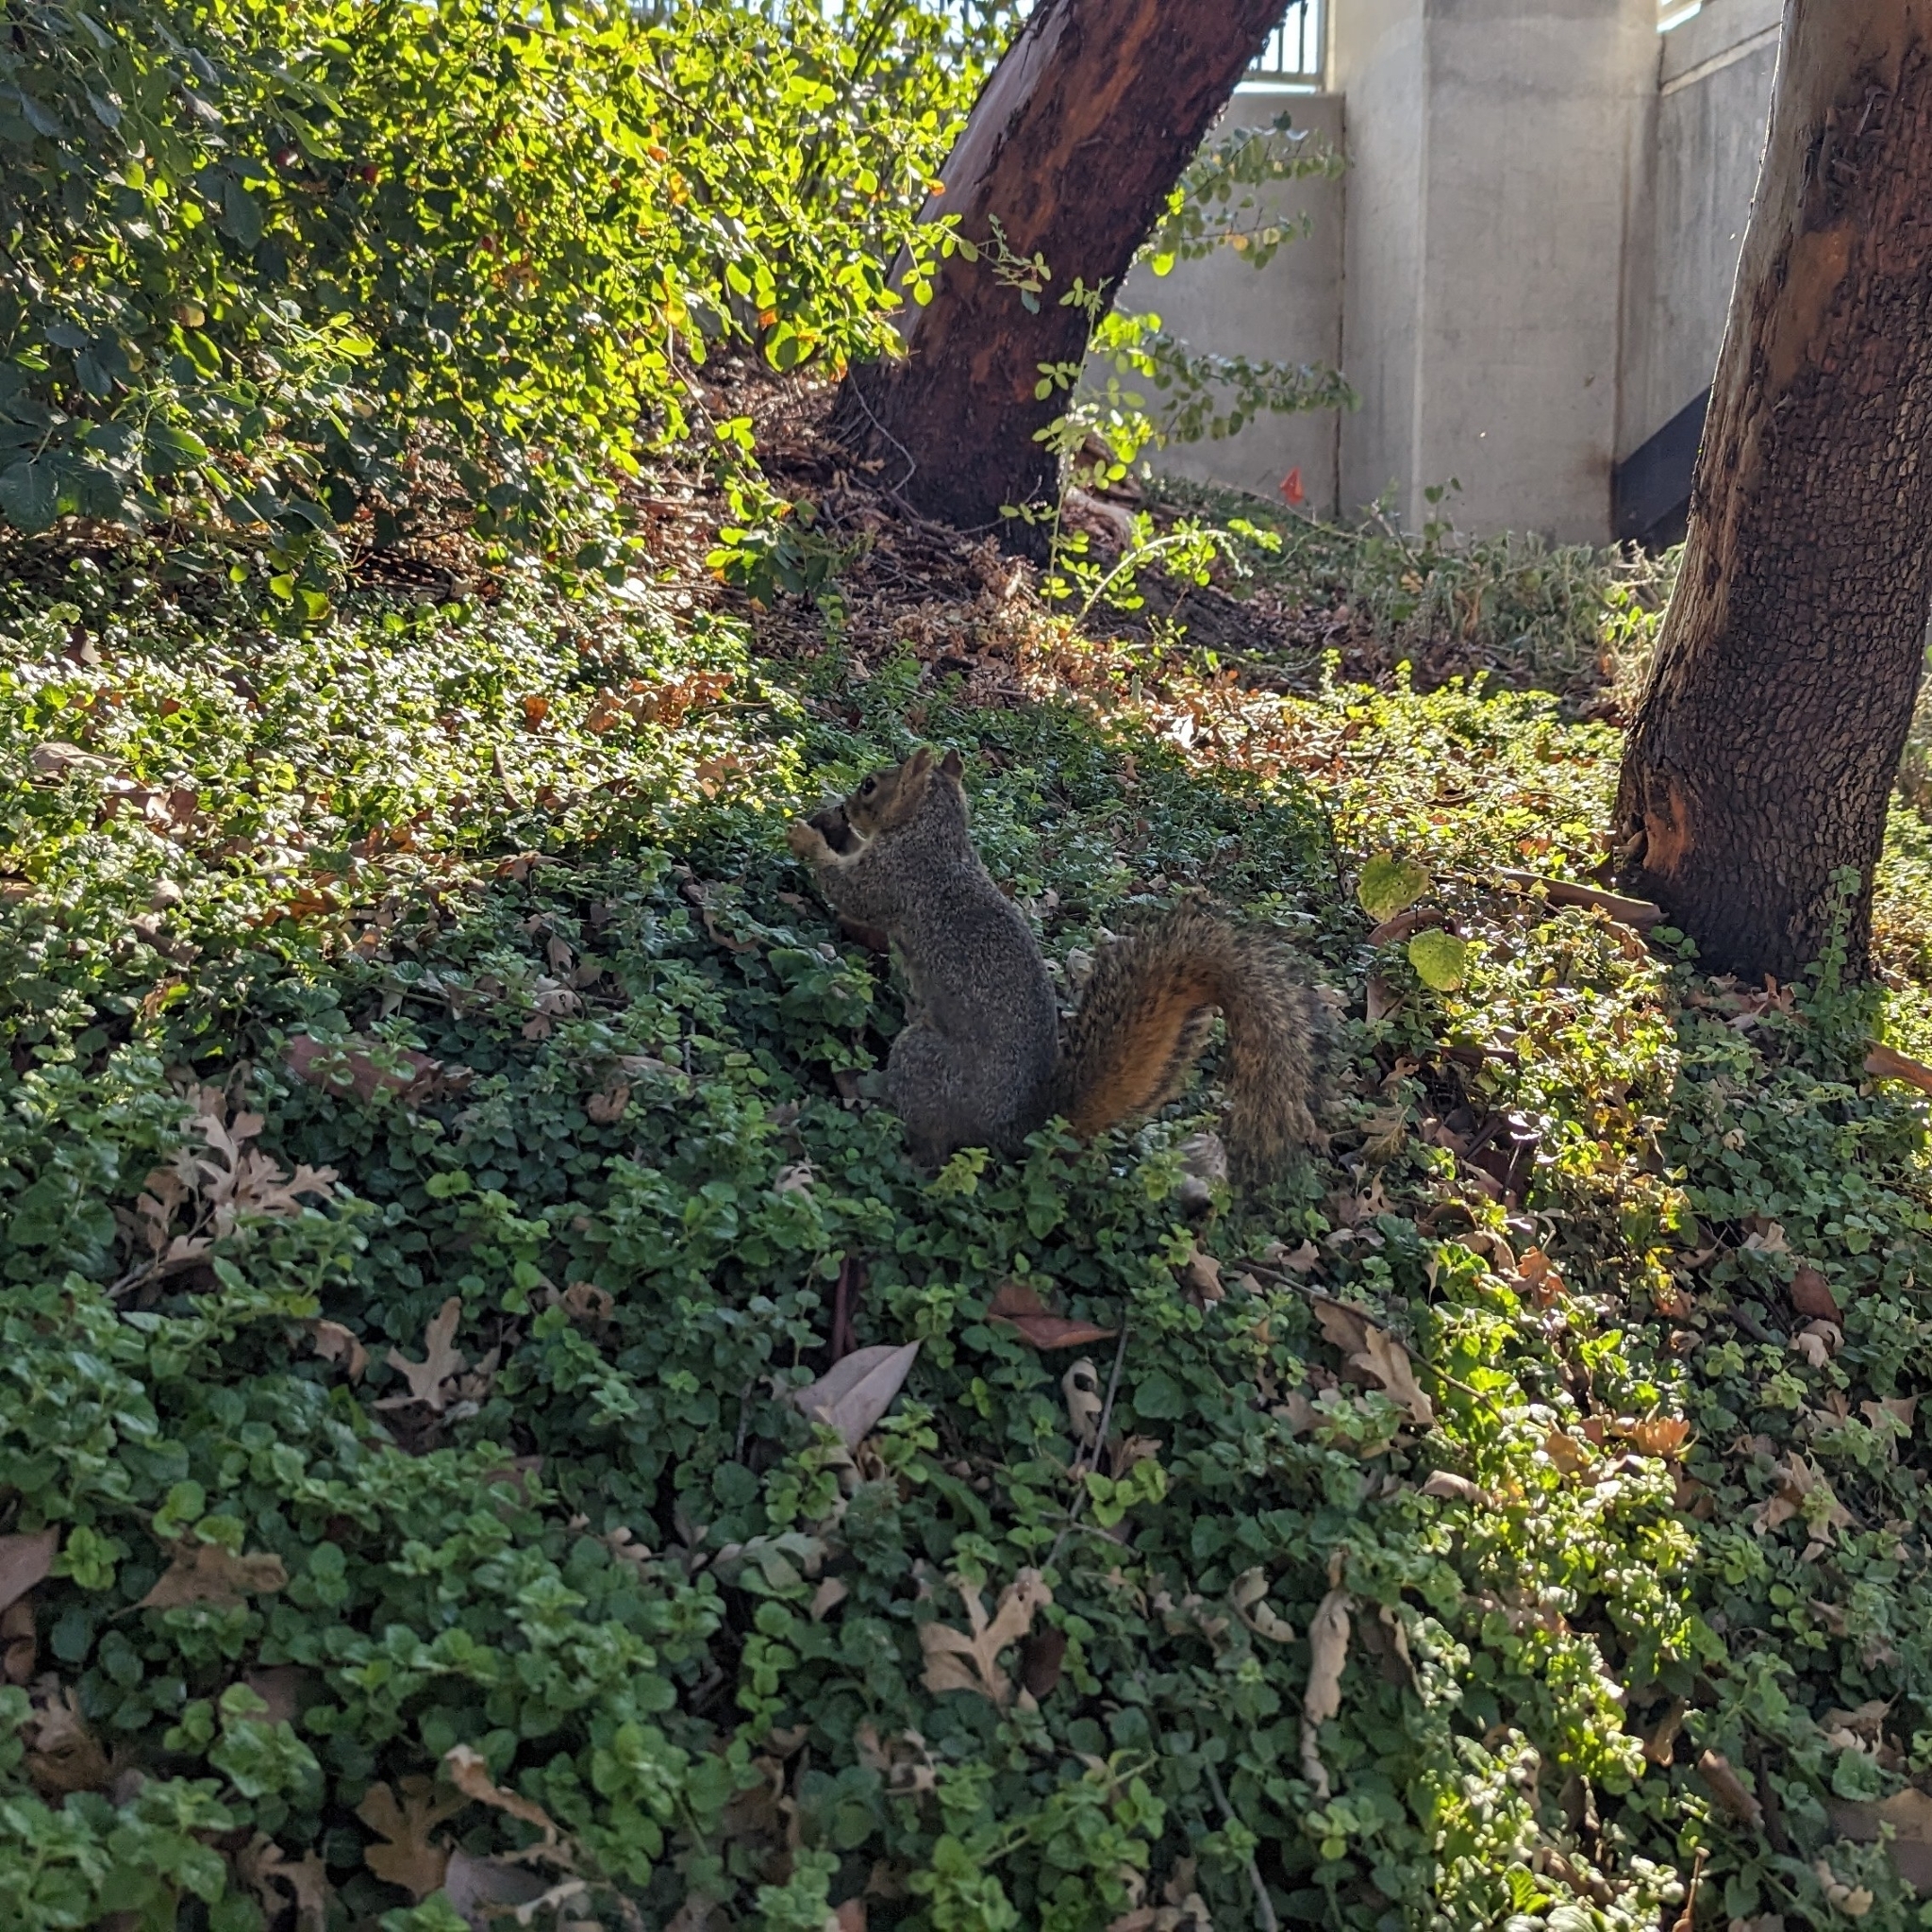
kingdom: Animalia
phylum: Chordata
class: Mammalia
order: Rodentia
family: Sciuridae
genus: Sciurus
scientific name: Sciurus niger
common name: Fox squirrel
